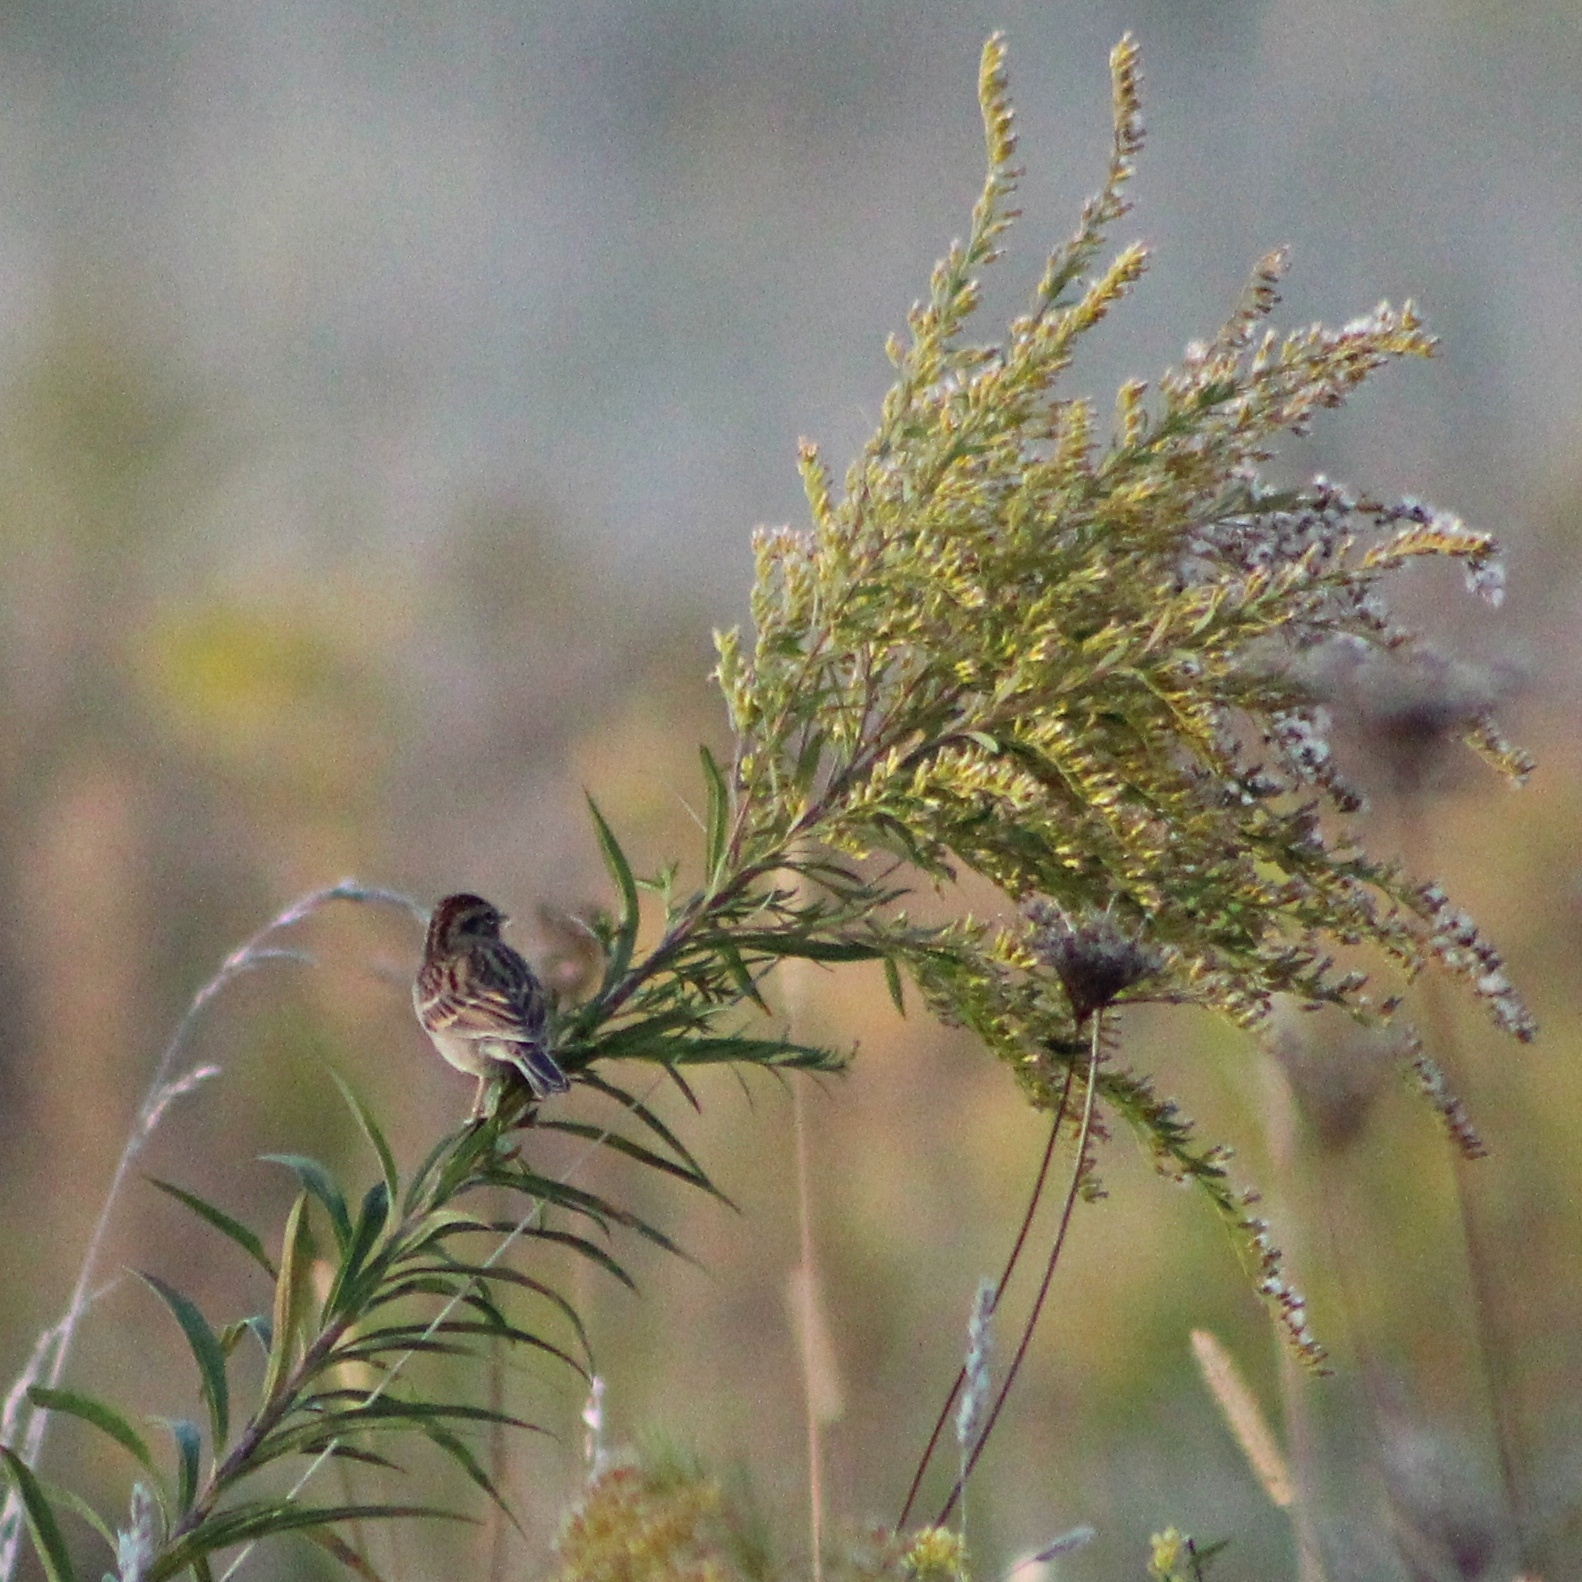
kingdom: Animalia
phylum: Chordata
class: Aves
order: Passeriformes
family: Passerellidae
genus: Spizella
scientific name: Spizella passerina
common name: Chipping sparrow
